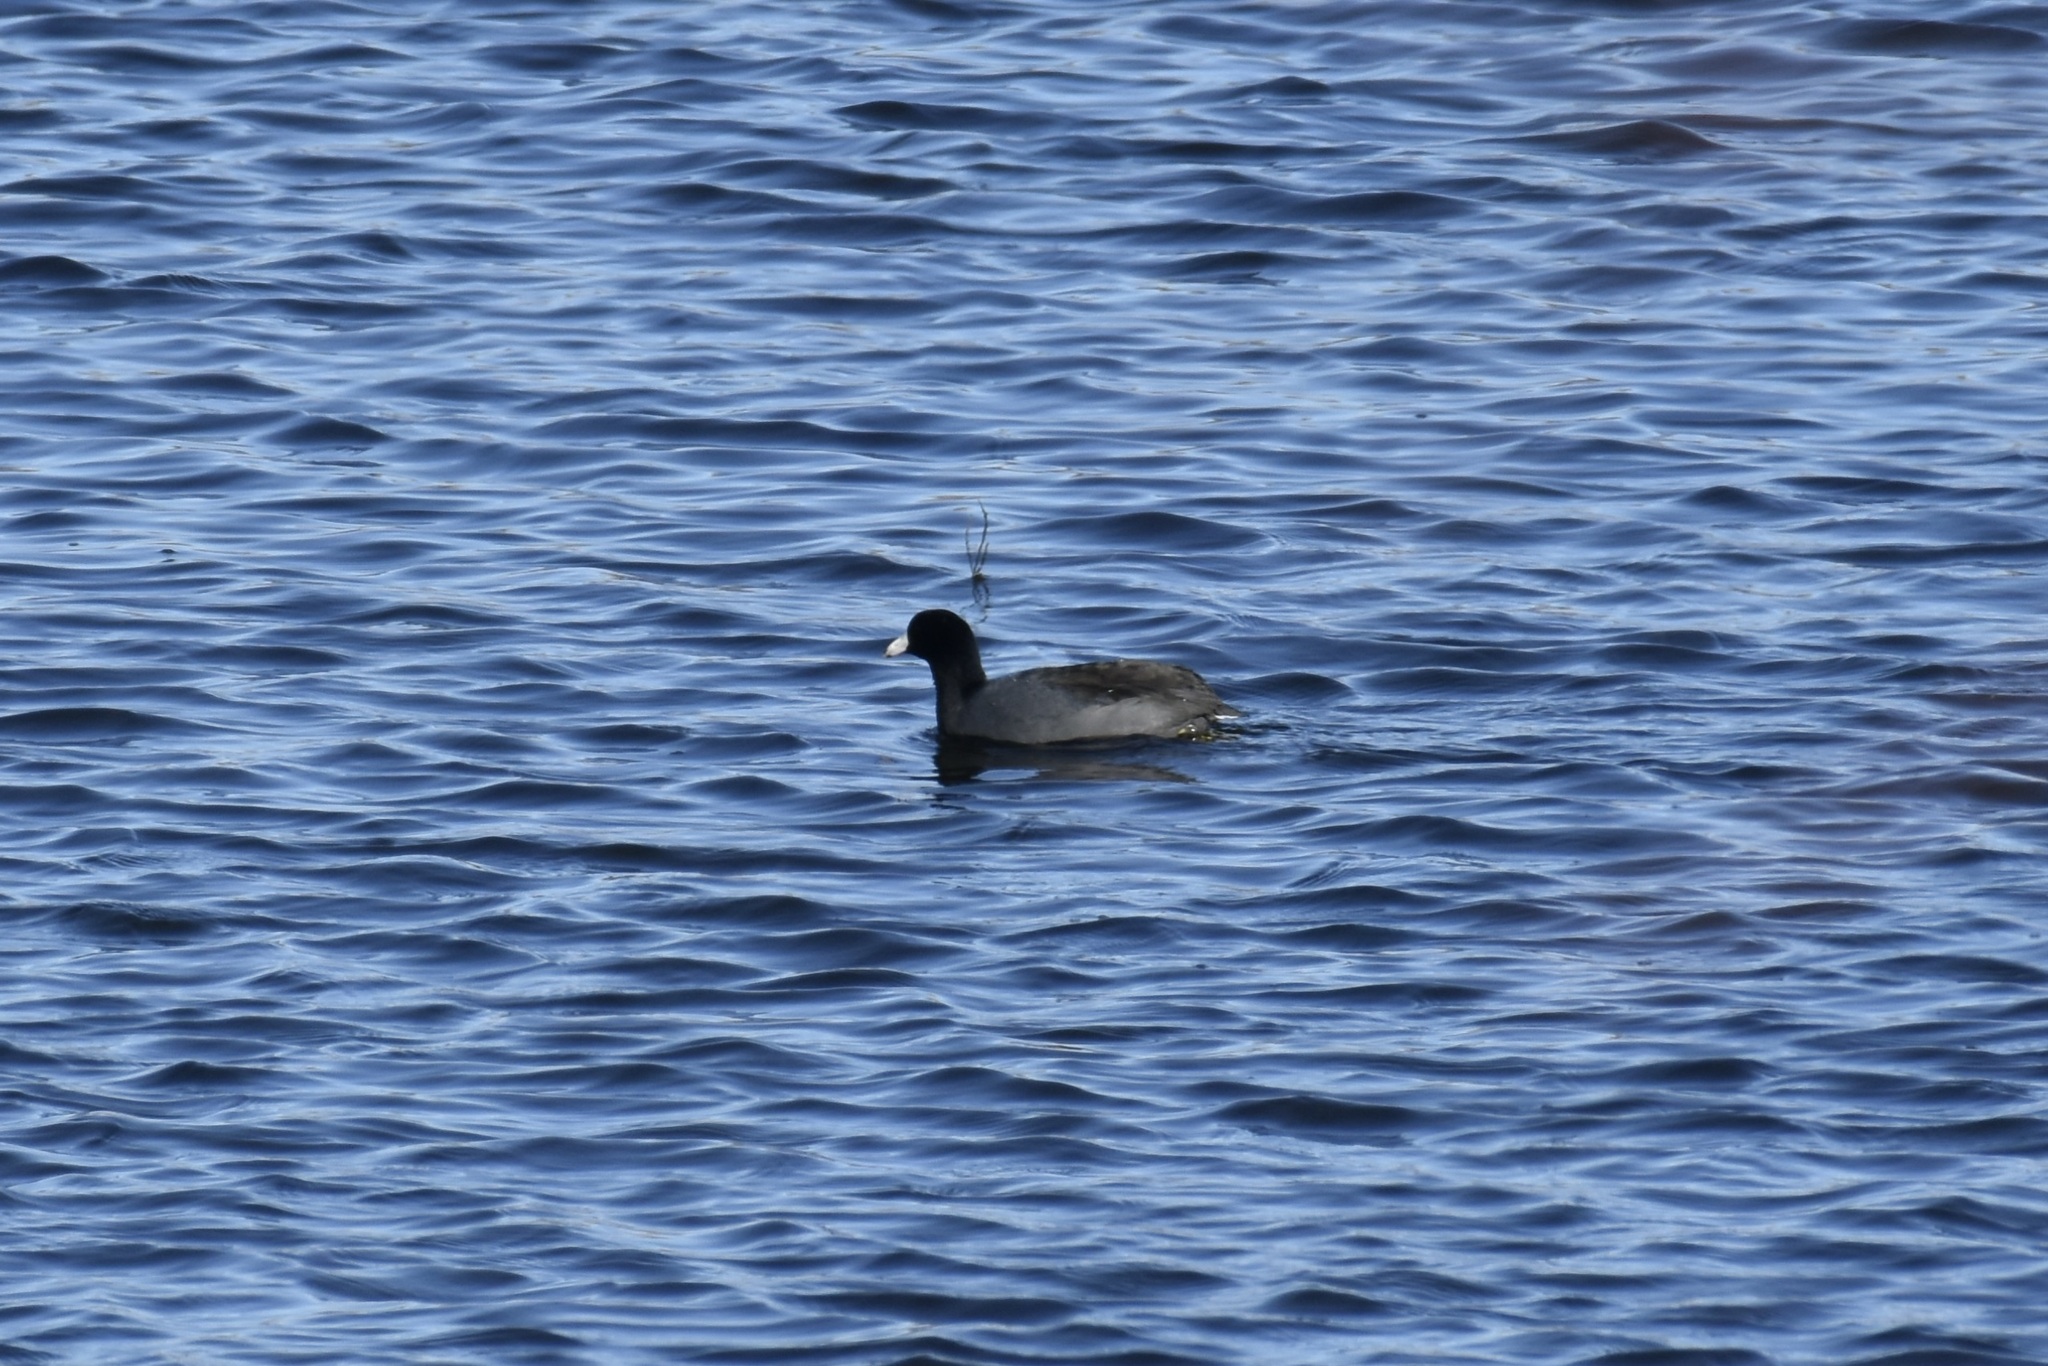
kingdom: Animalia
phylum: Chordata
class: Aves
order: Gruiformes
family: Rallidae
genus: Fulica
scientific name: Fulica americana
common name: American coot
